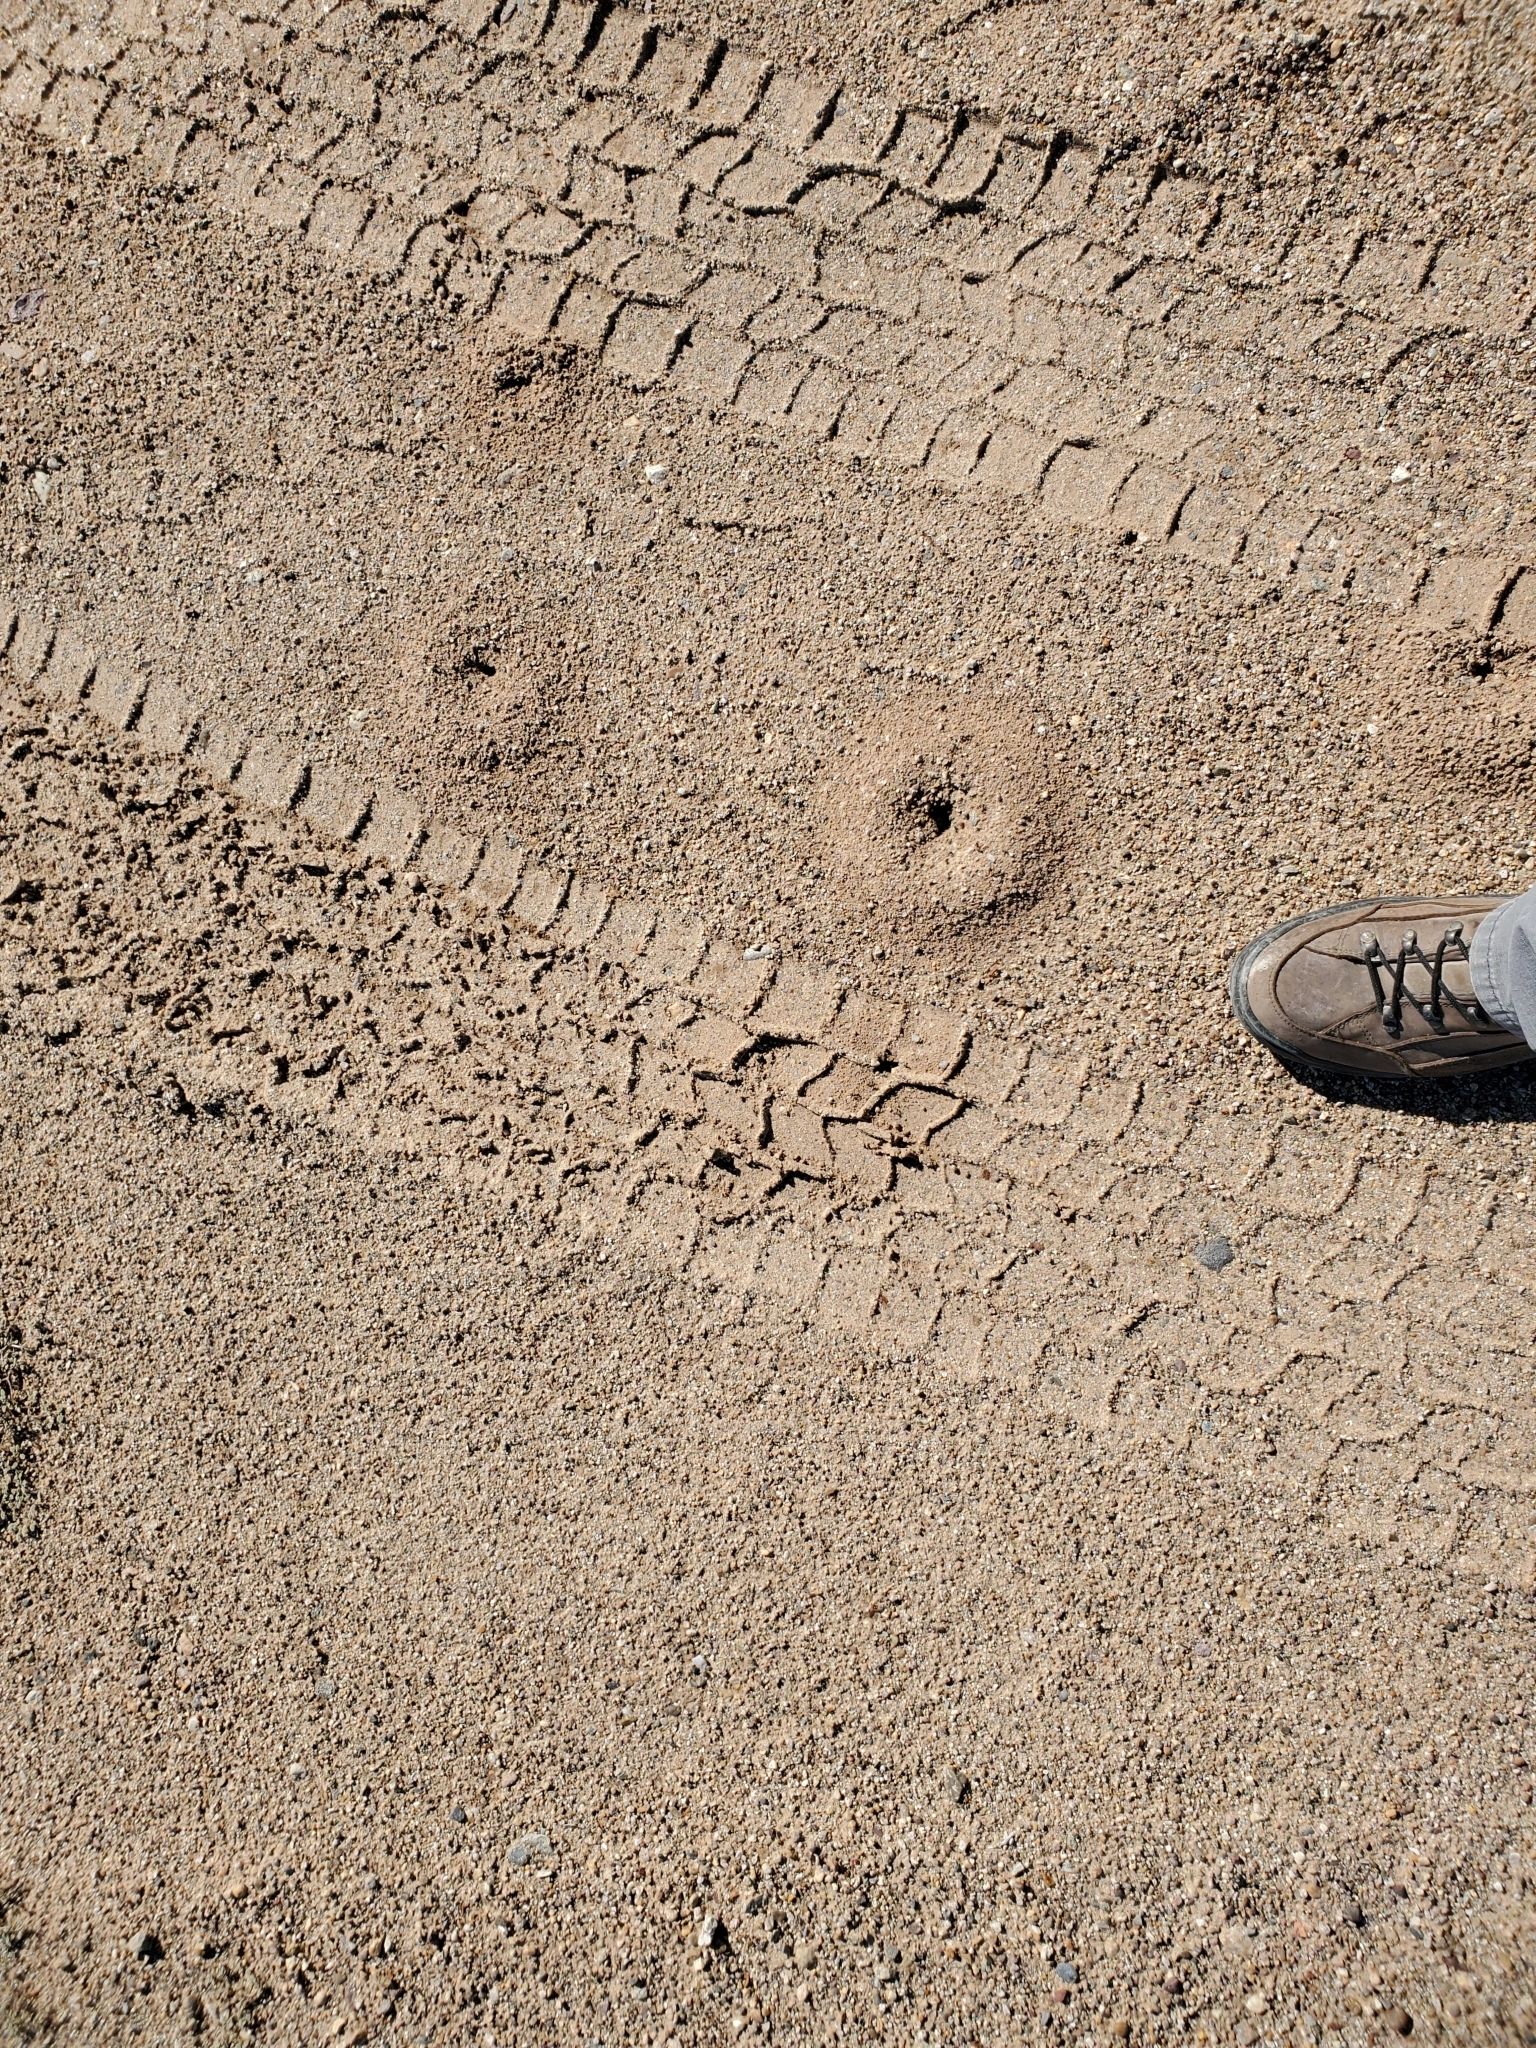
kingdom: Animalia
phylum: Arthropoda
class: Insecta
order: Hymenoptera
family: Formicidae
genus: Messor
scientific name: Messor pergandei
